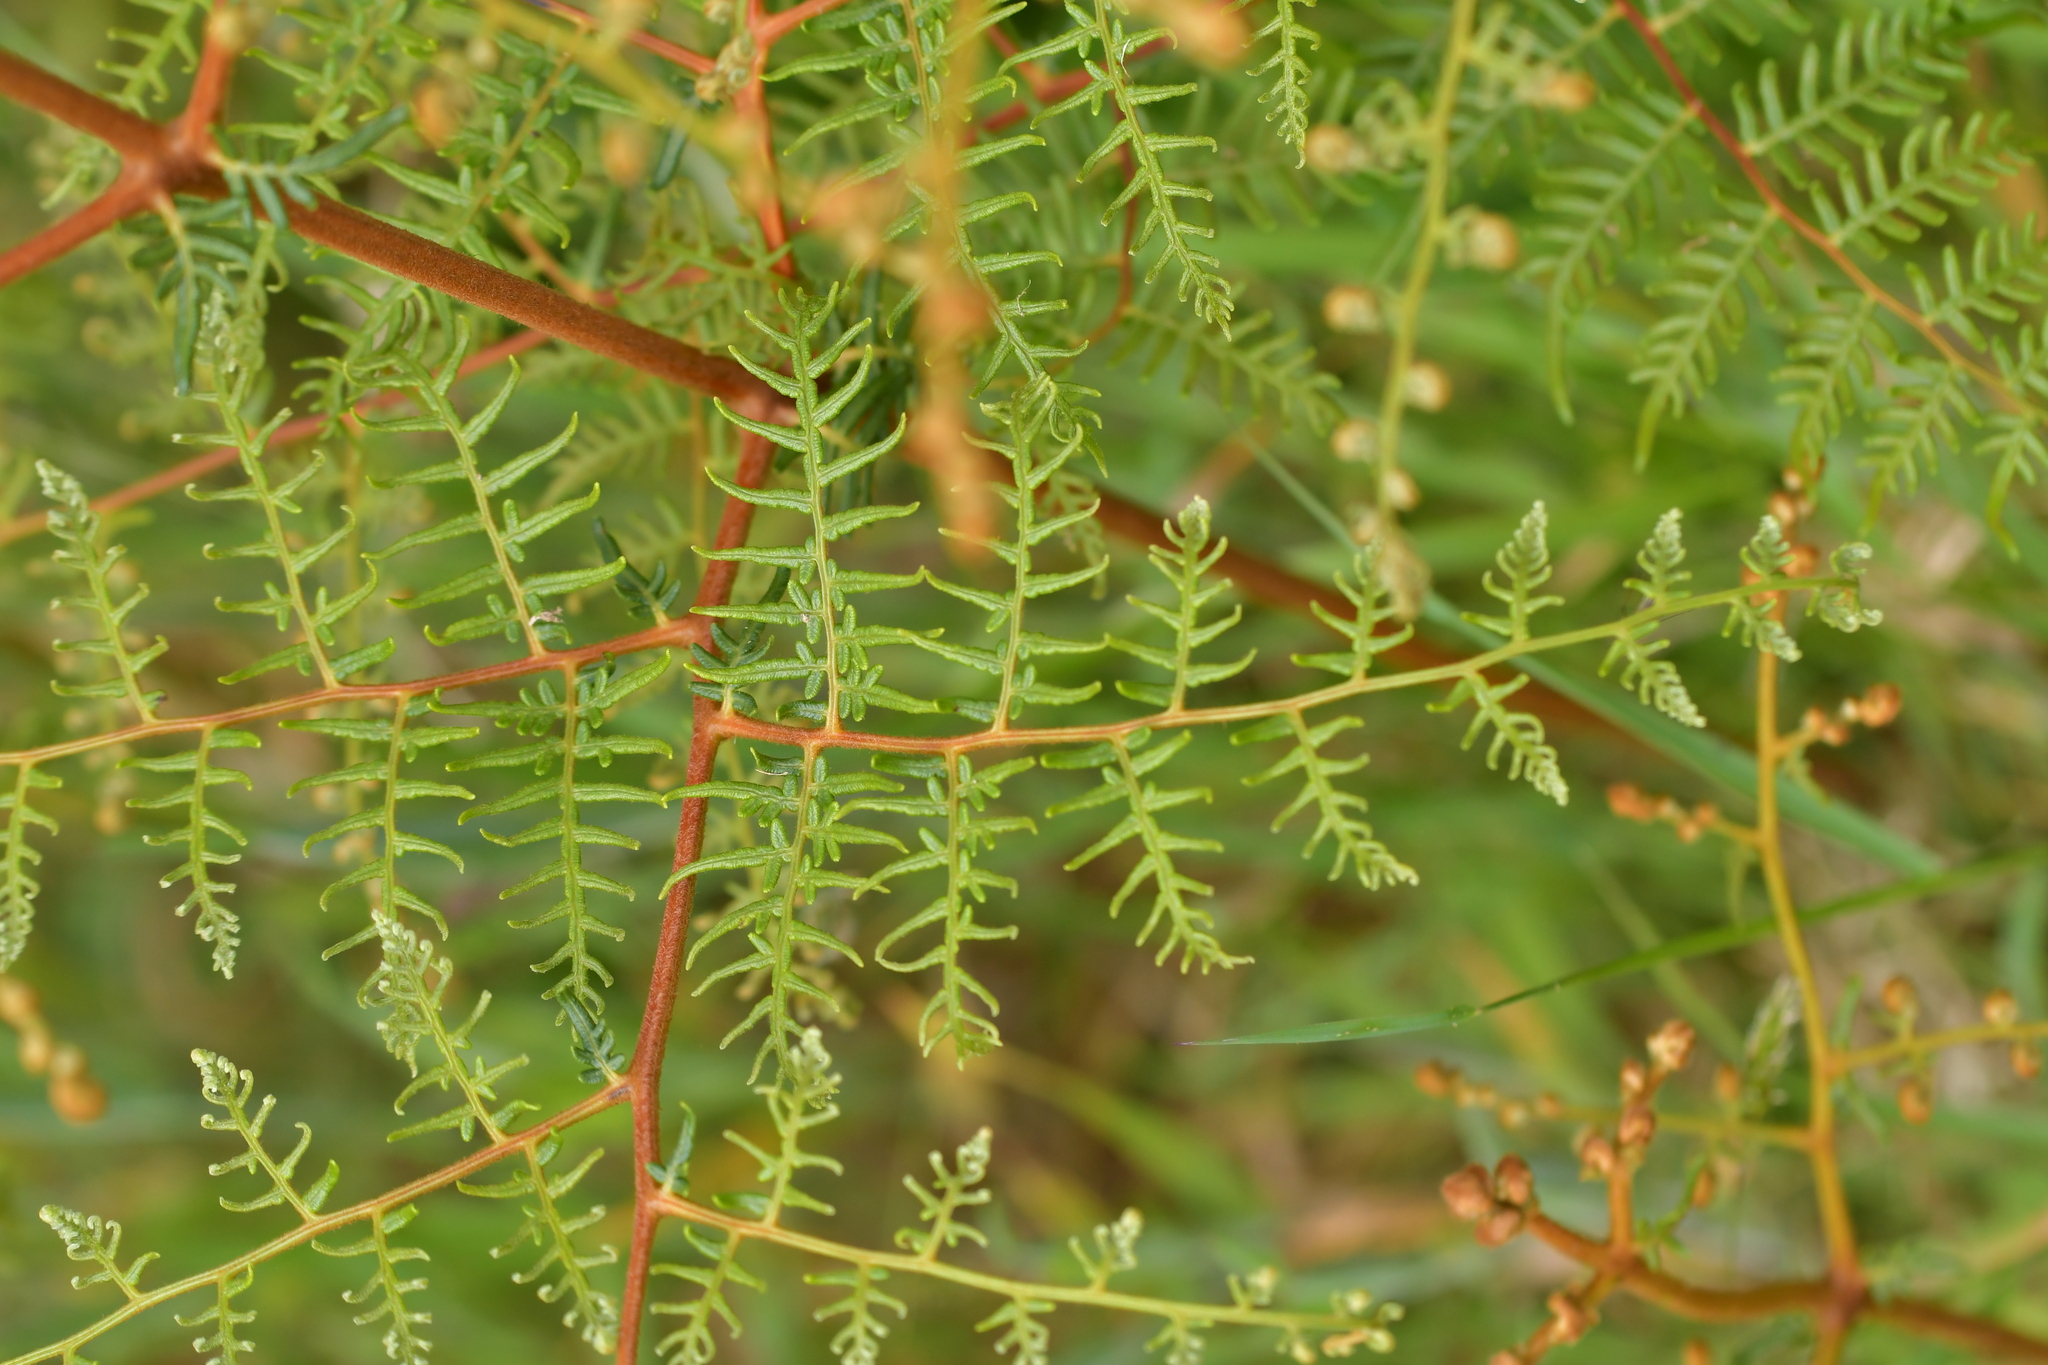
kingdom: Plantae
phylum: Tracheophyta
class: Polypodiopsida
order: Polypodiales
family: Dennstaedtiaceae
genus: Pteridium
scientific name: Pteridium esculentum
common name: Bracken fern
